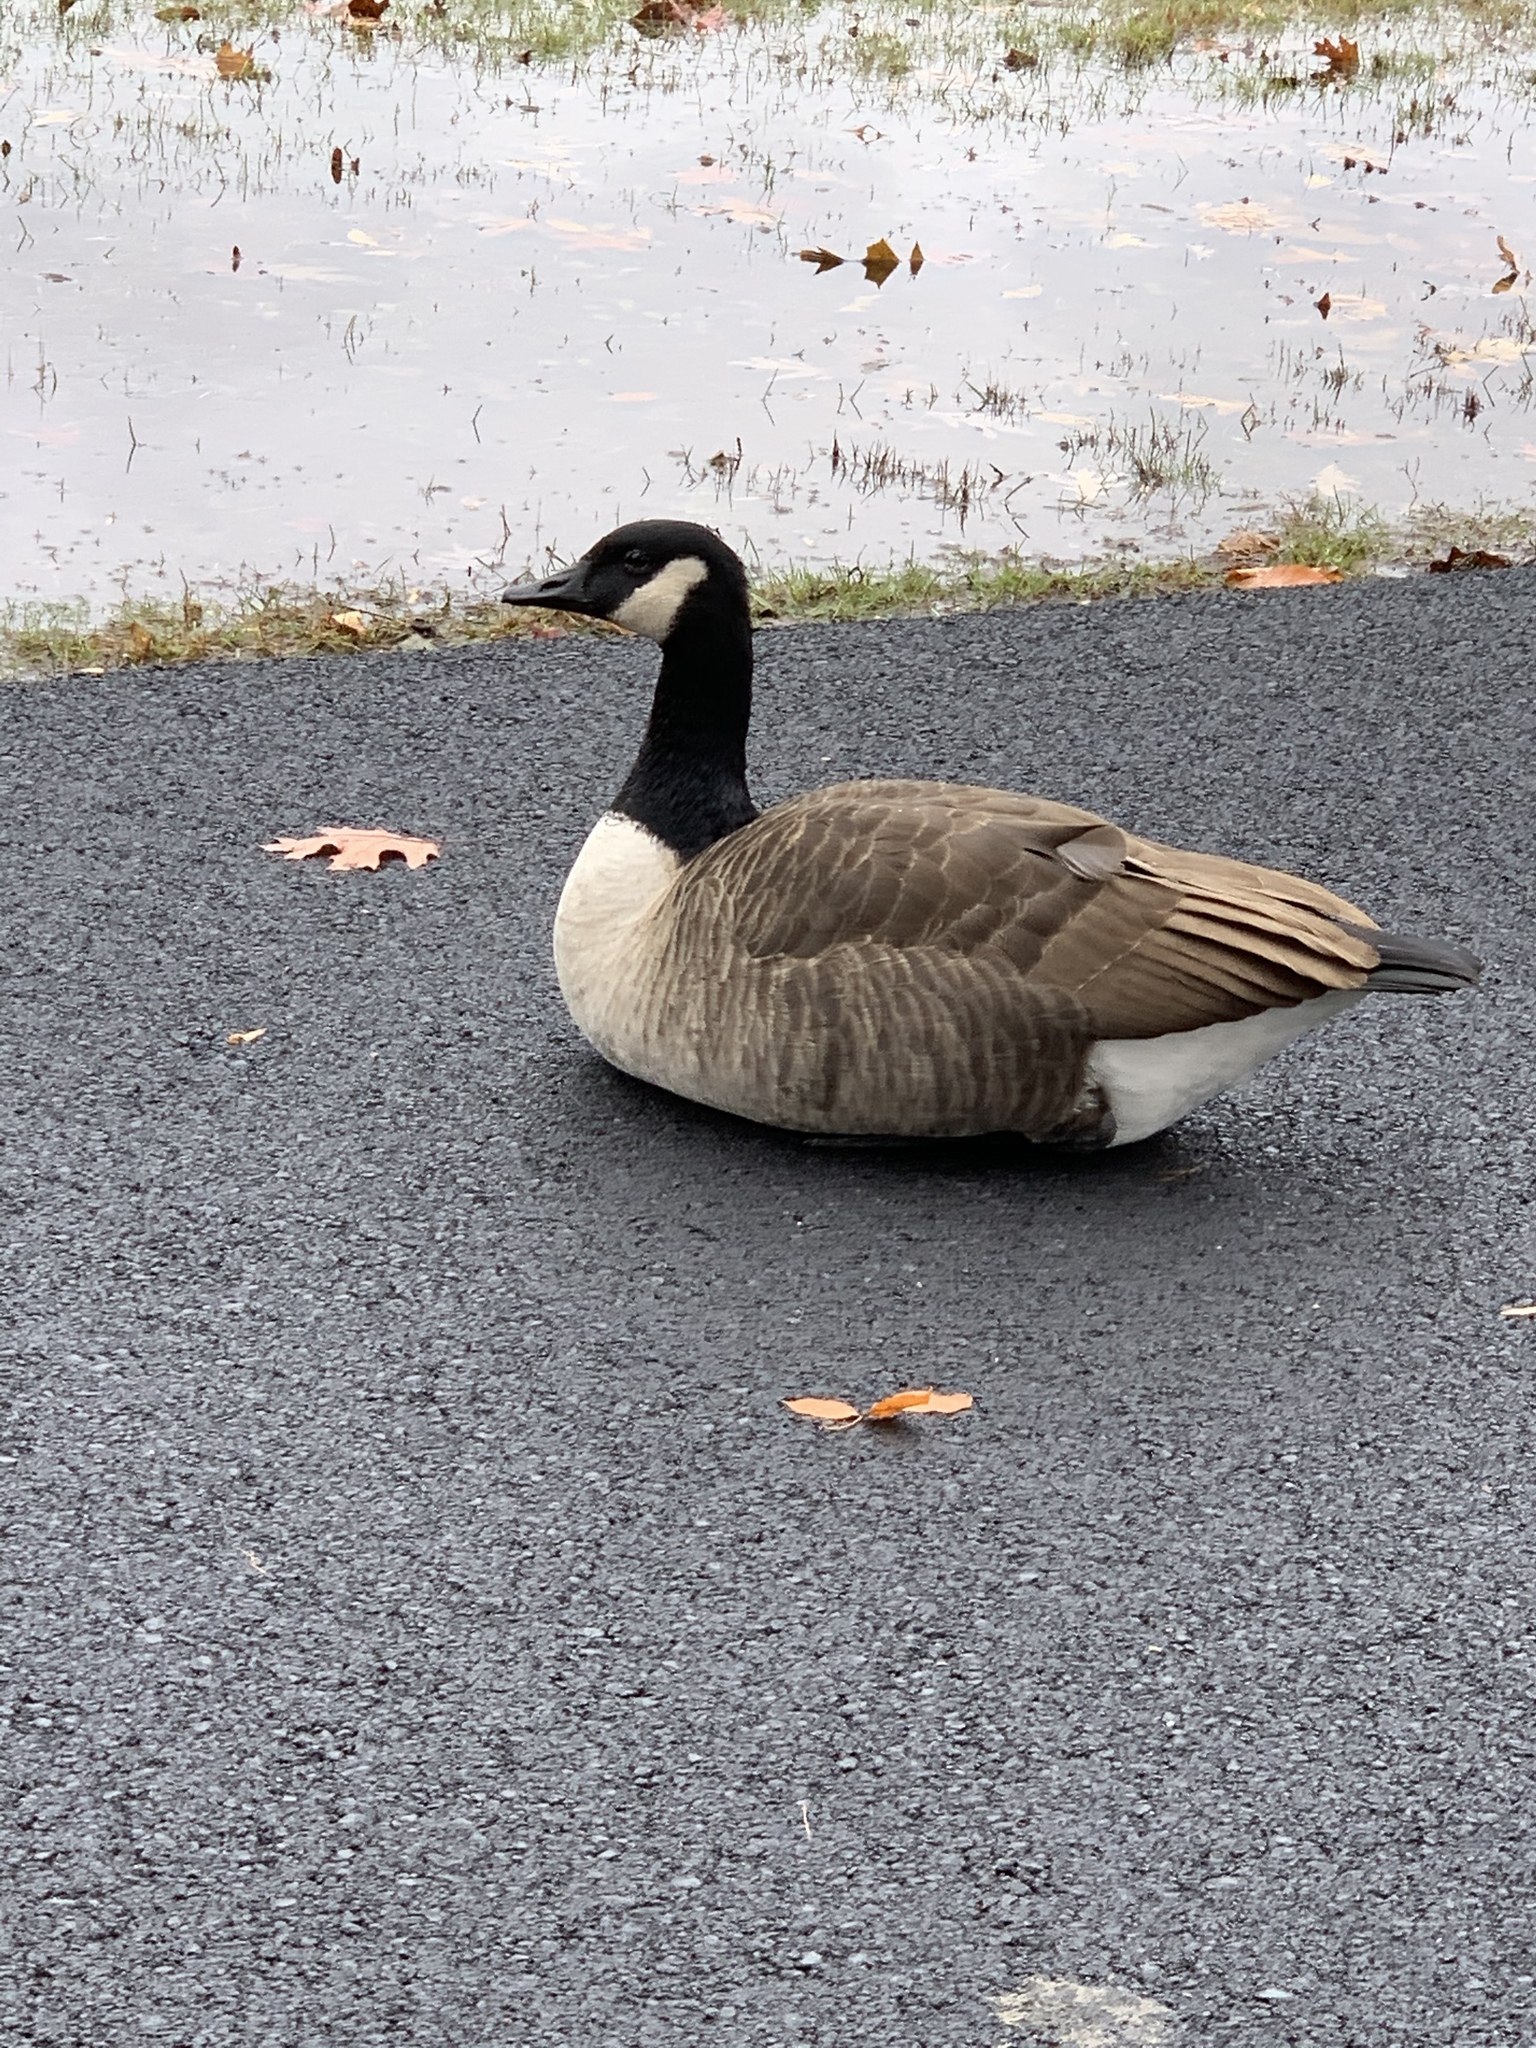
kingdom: Animalia
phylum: Chordata
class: Aves
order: Anseriformes
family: Anatidae
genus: Branta
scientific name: Branta canadensis
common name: Canada goose
